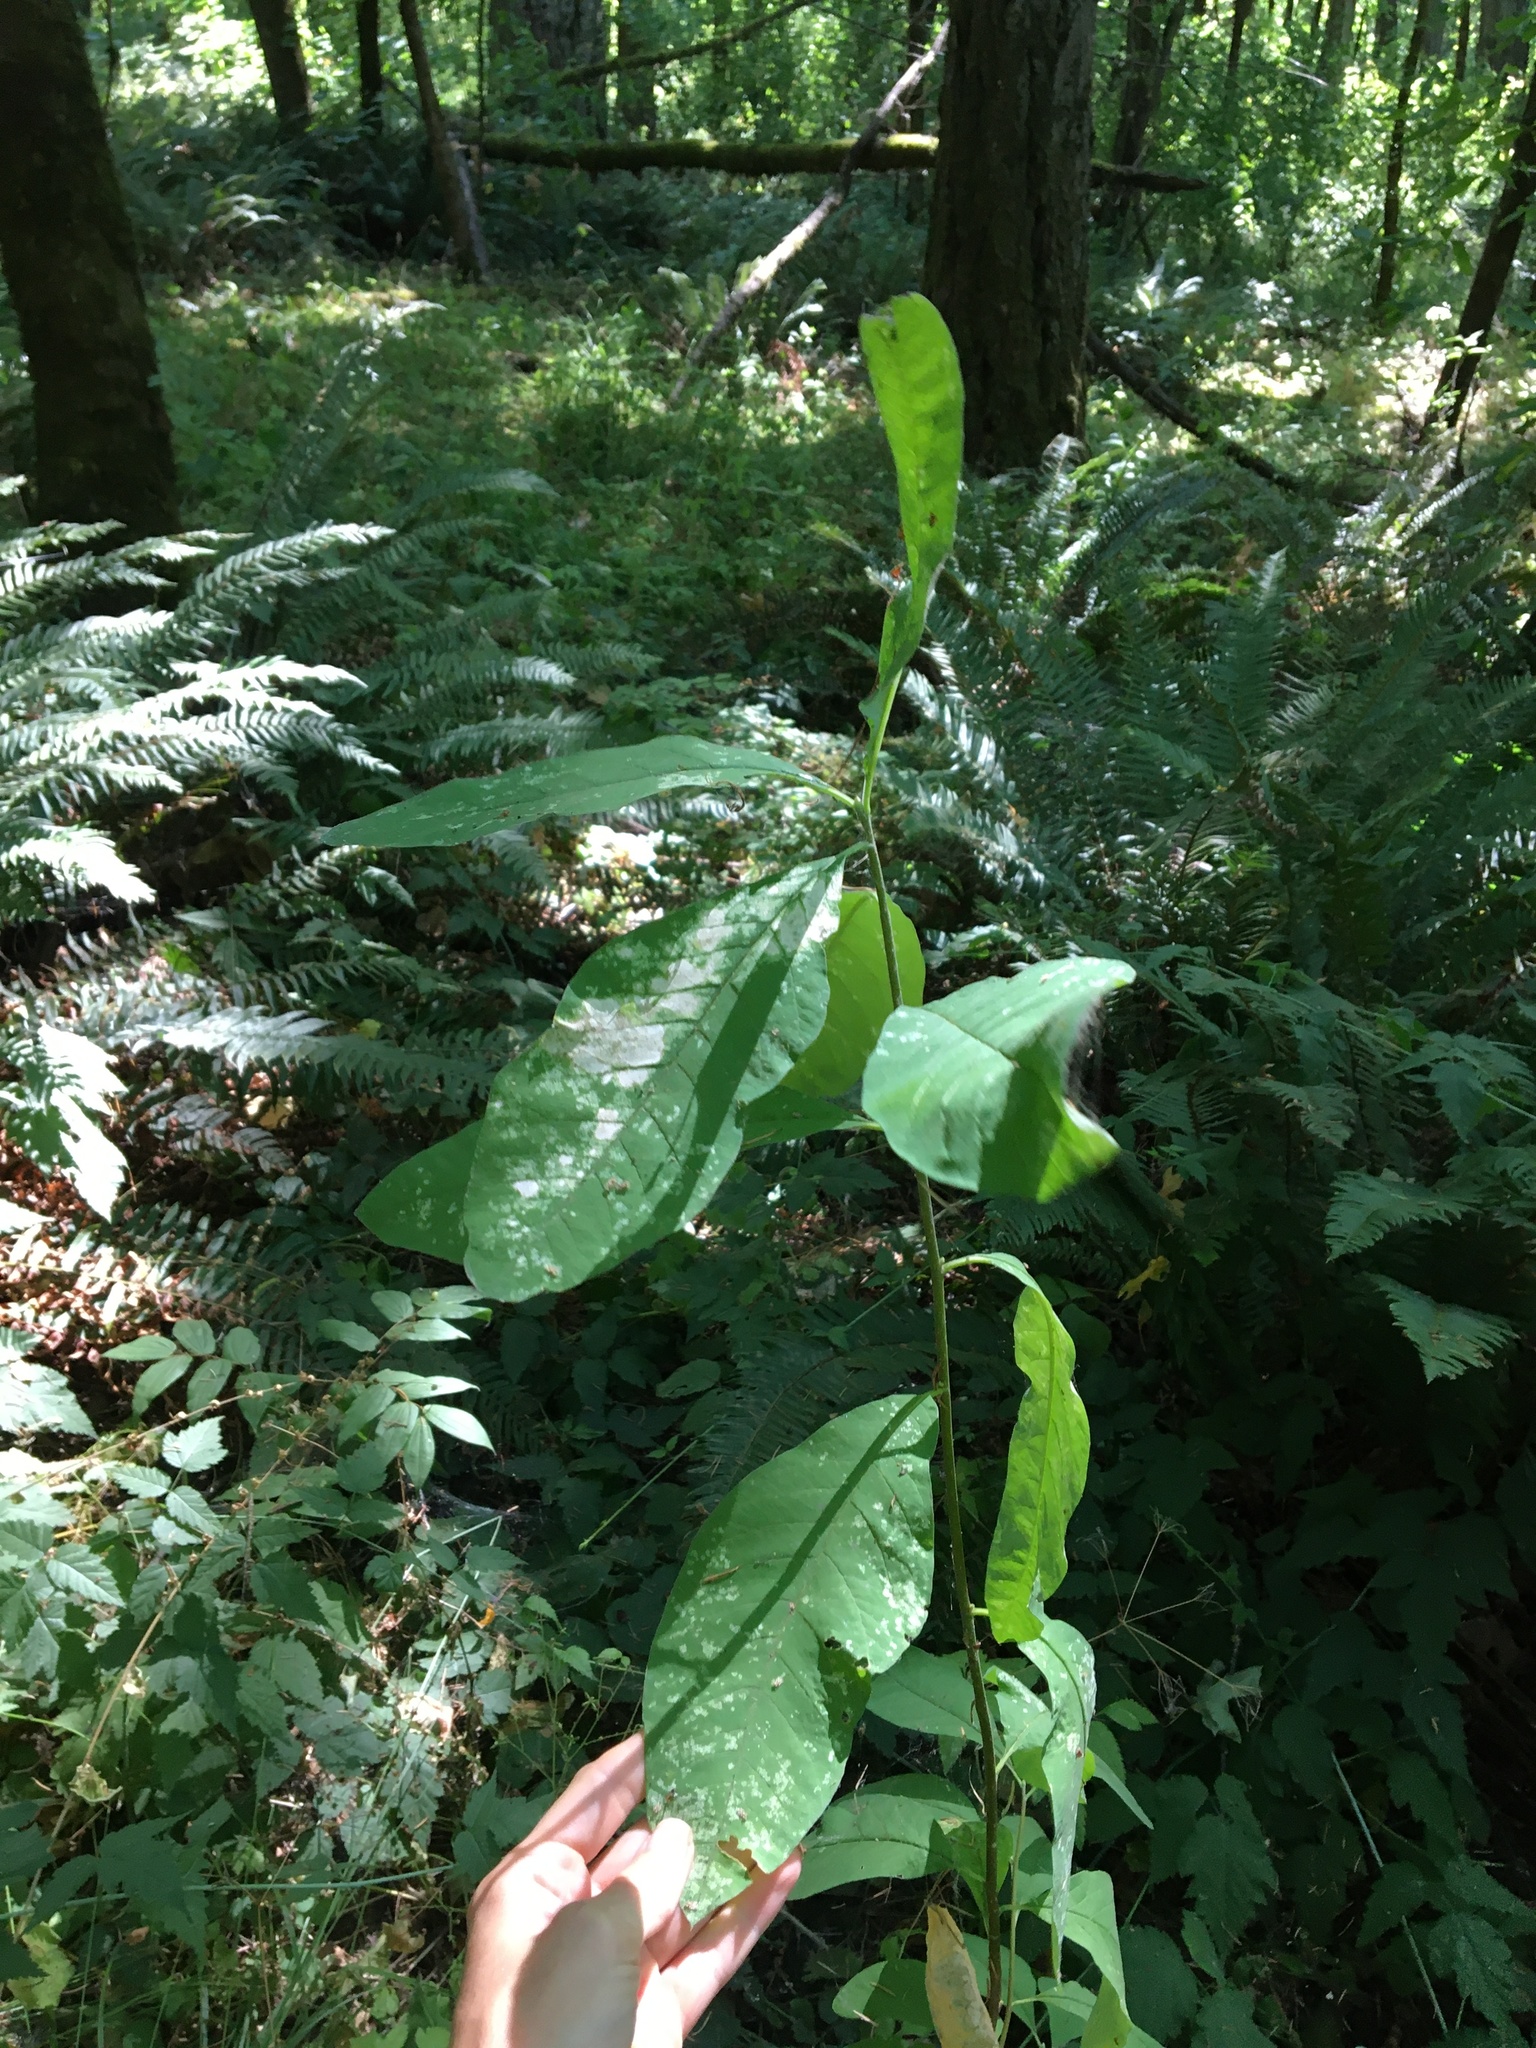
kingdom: Plantae
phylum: Tracheophyta
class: Magnoliopsida
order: Rosales
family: Rosaceae
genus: Oemleria
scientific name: Oemleria cerasiformis
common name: Osoberry
